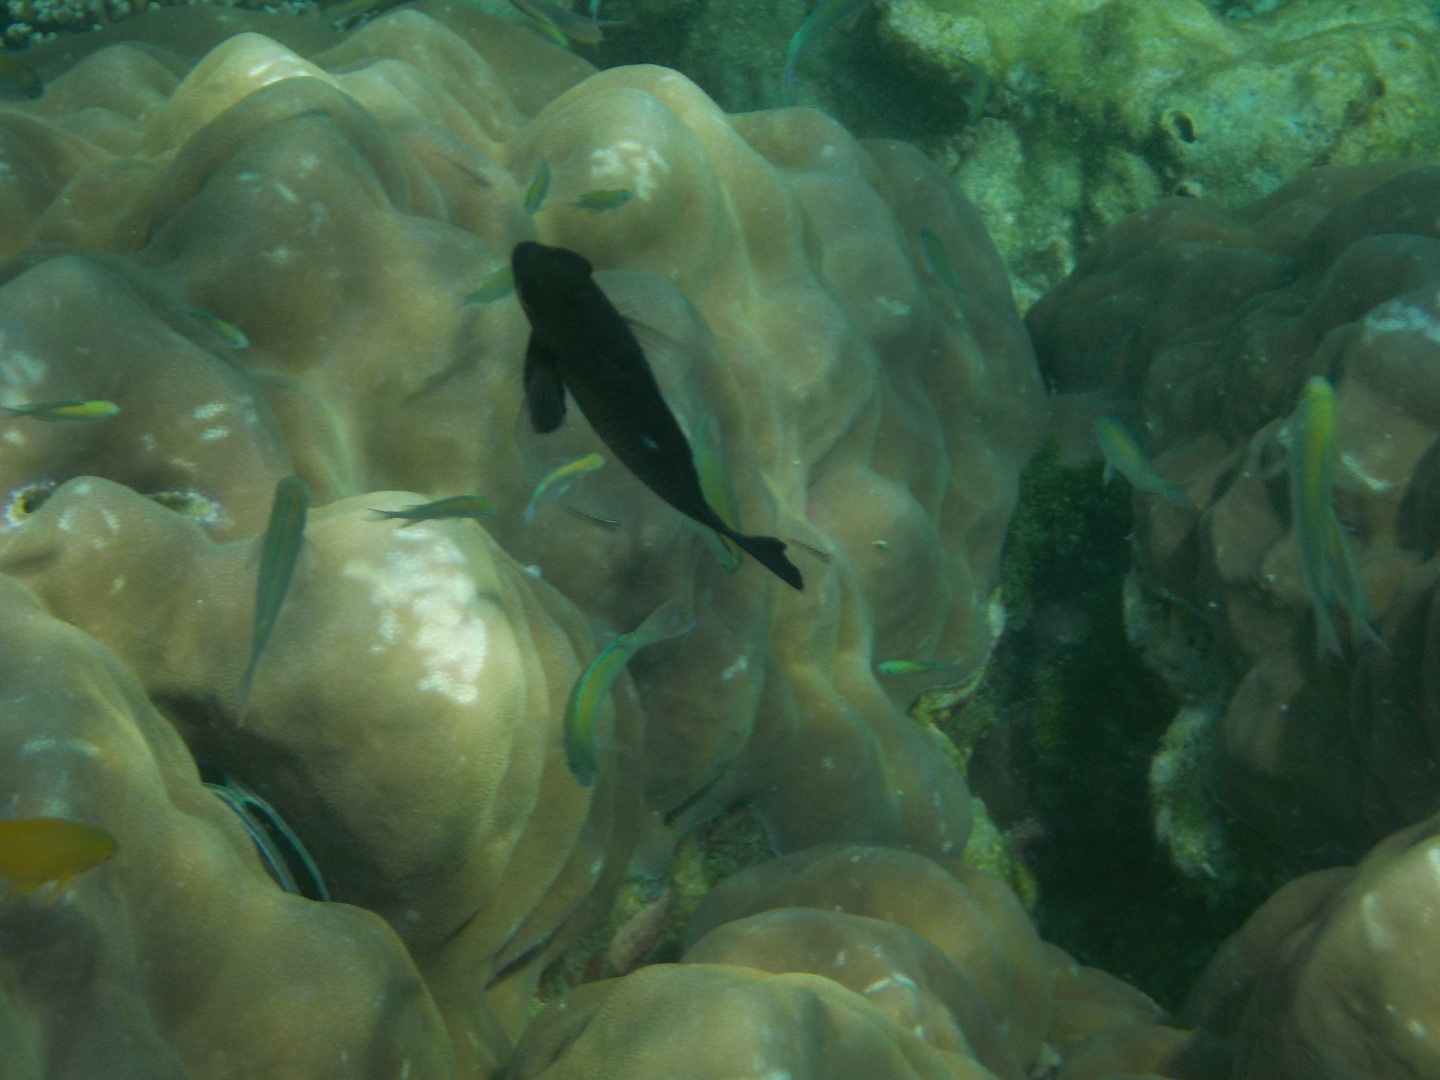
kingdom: Animalia
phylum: Chordata
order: Perciformes
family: Pomacentridae
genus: Dascyllus
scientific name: Dascyllus trimaculatus
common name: Threespot dascyllus
